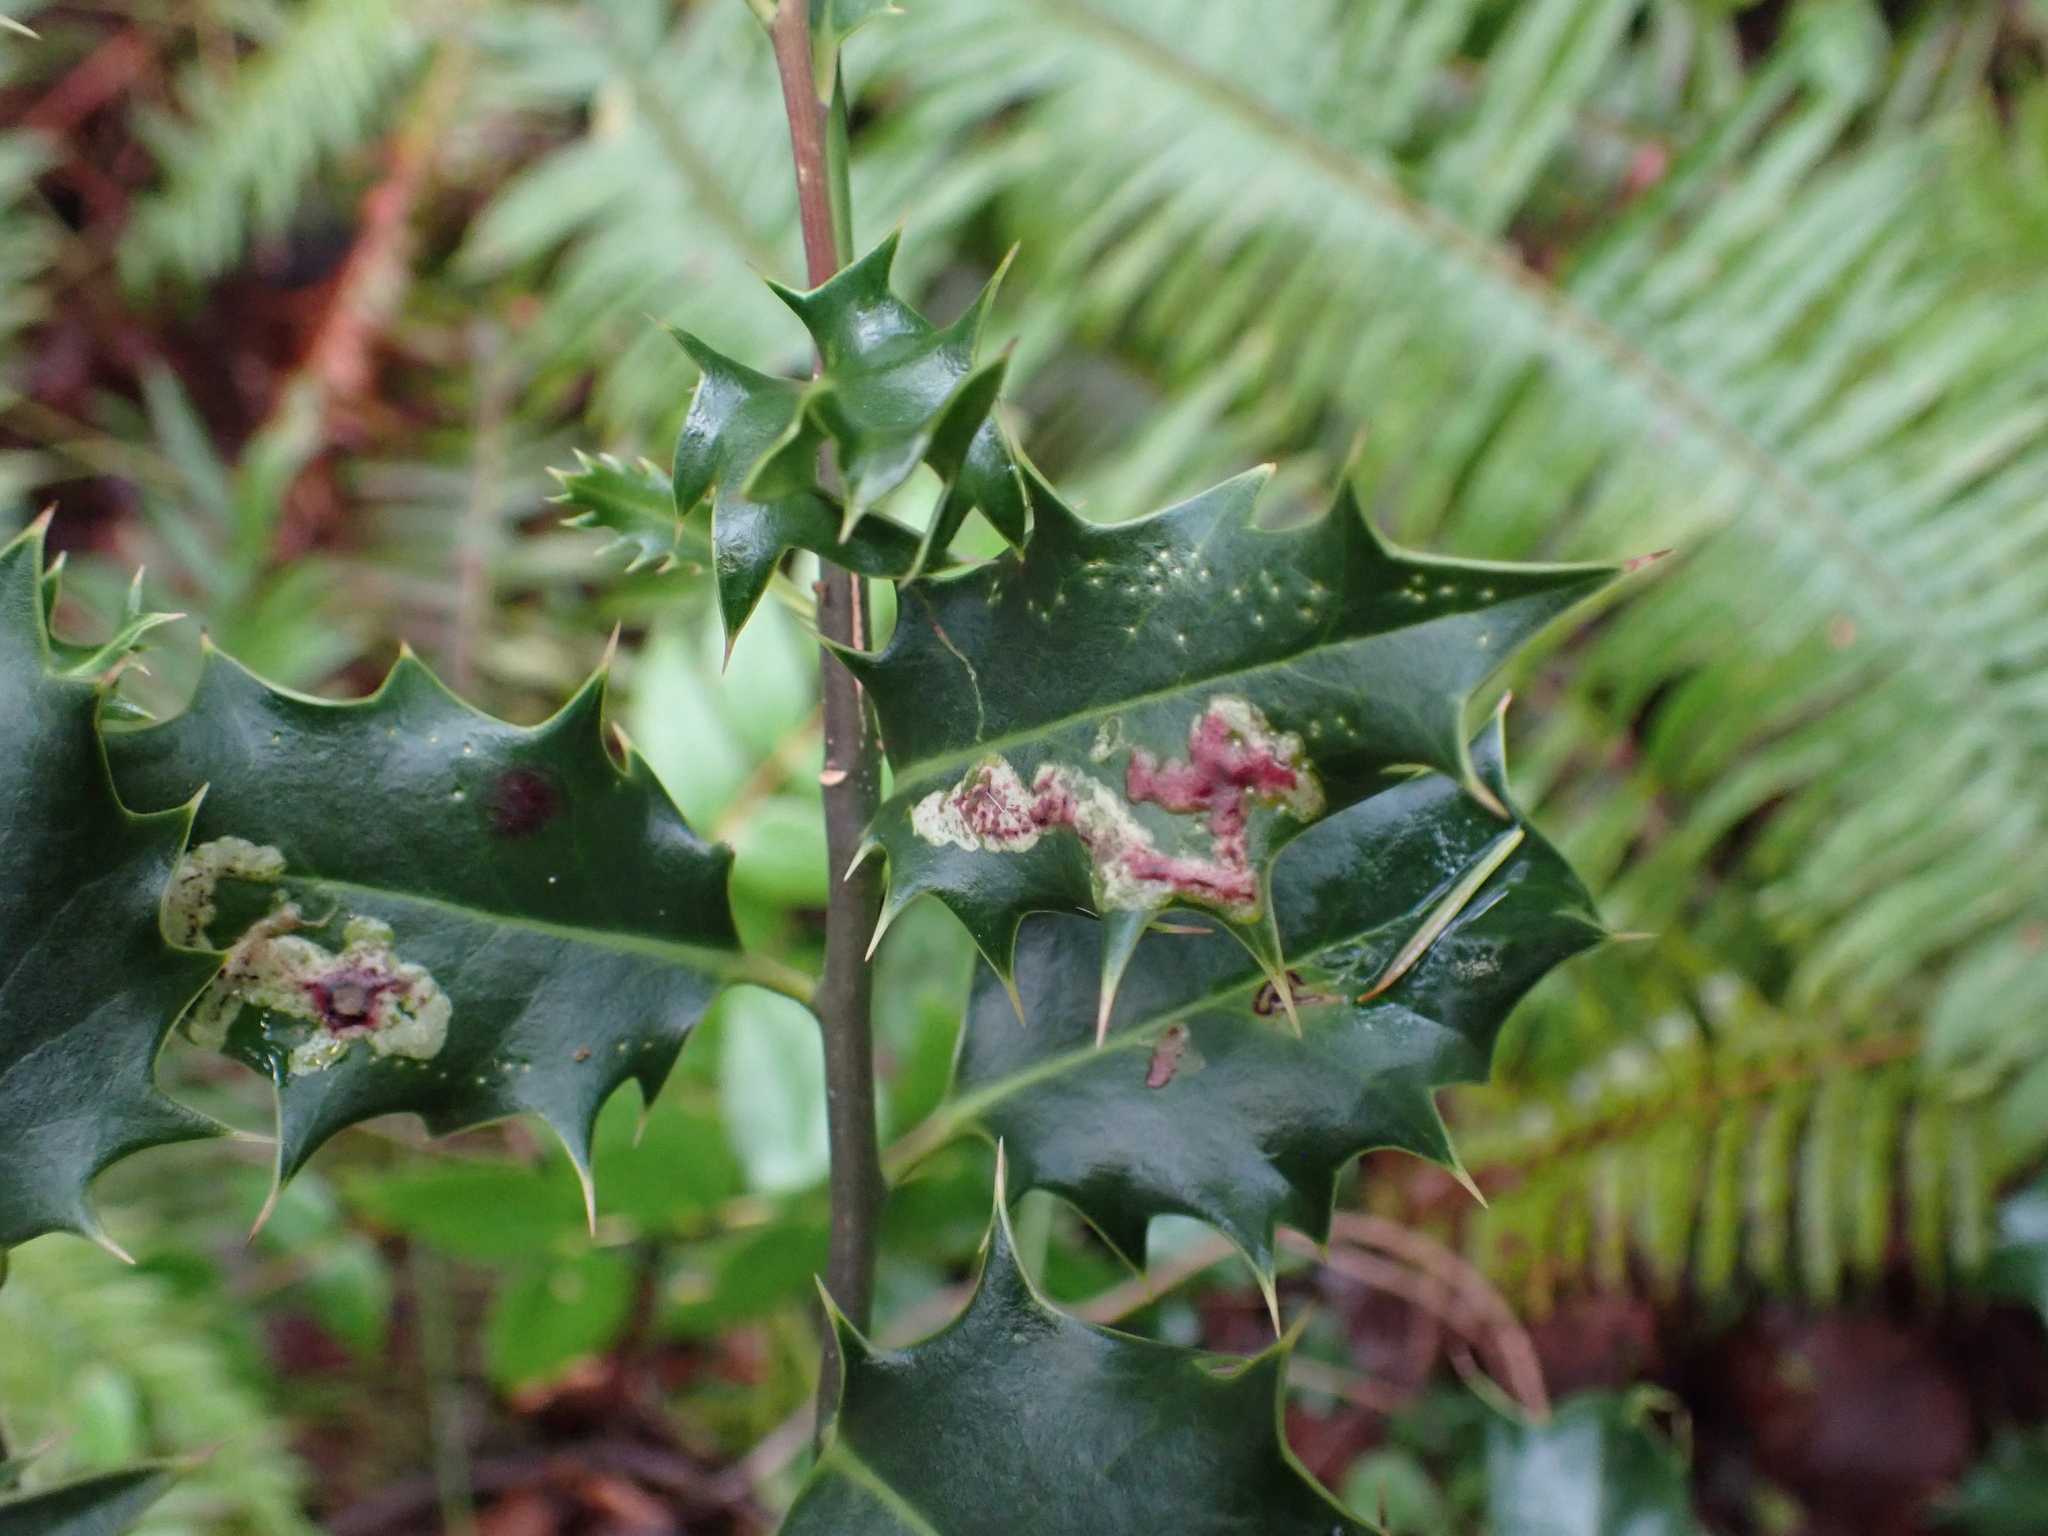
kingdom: Animalia
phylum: Arthropoda
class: Insecta
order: Diptera
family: Agromyzidae
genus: Phytomyza
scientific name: Phytomyza ilicis
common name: Holly leafminer
